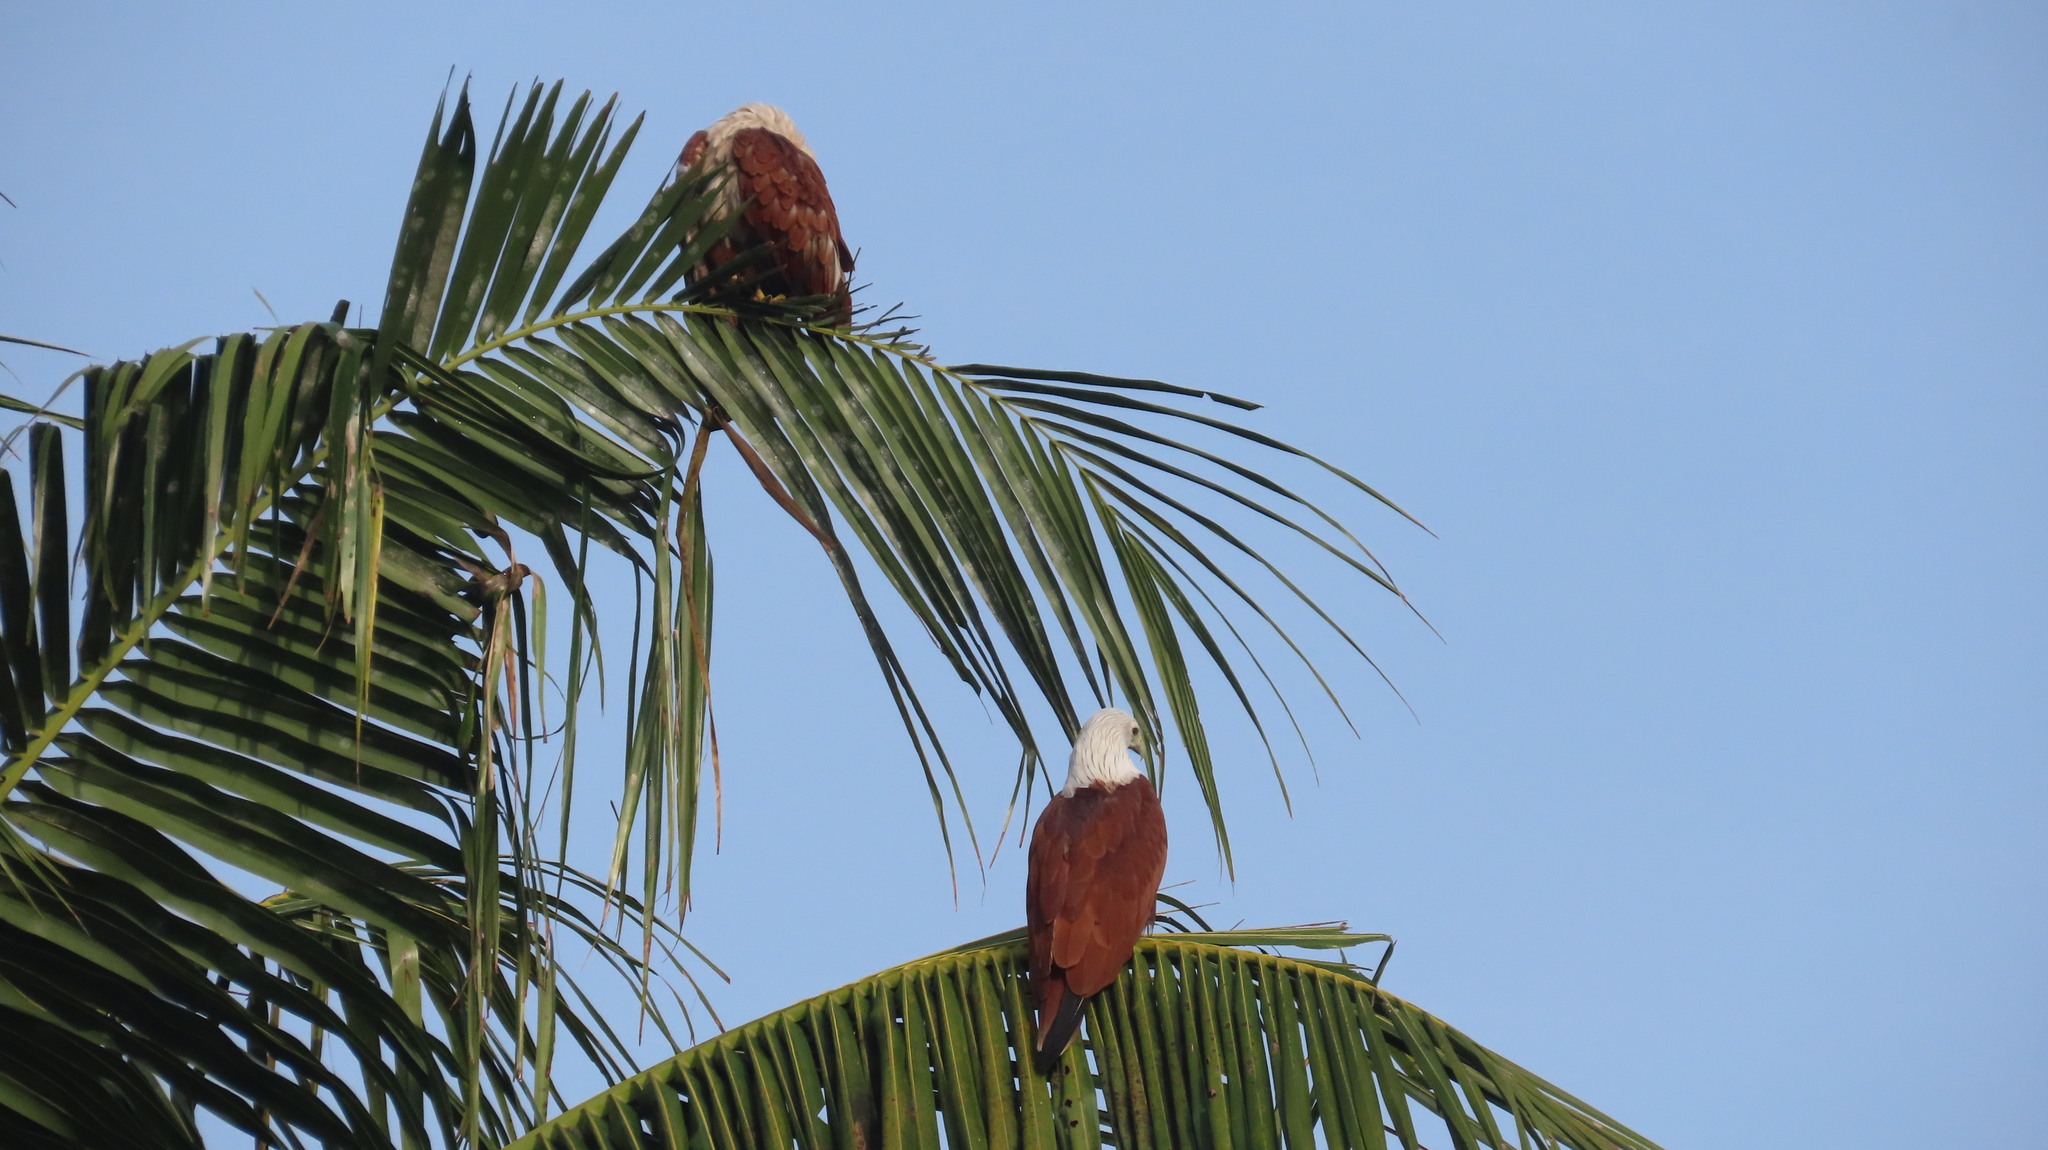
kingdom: Animalia
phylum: Chordata
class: Aves
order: Accipitriformes
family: Accipitridae
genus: Haliastur
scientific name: Haliastur indus
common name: Brahminy kite
